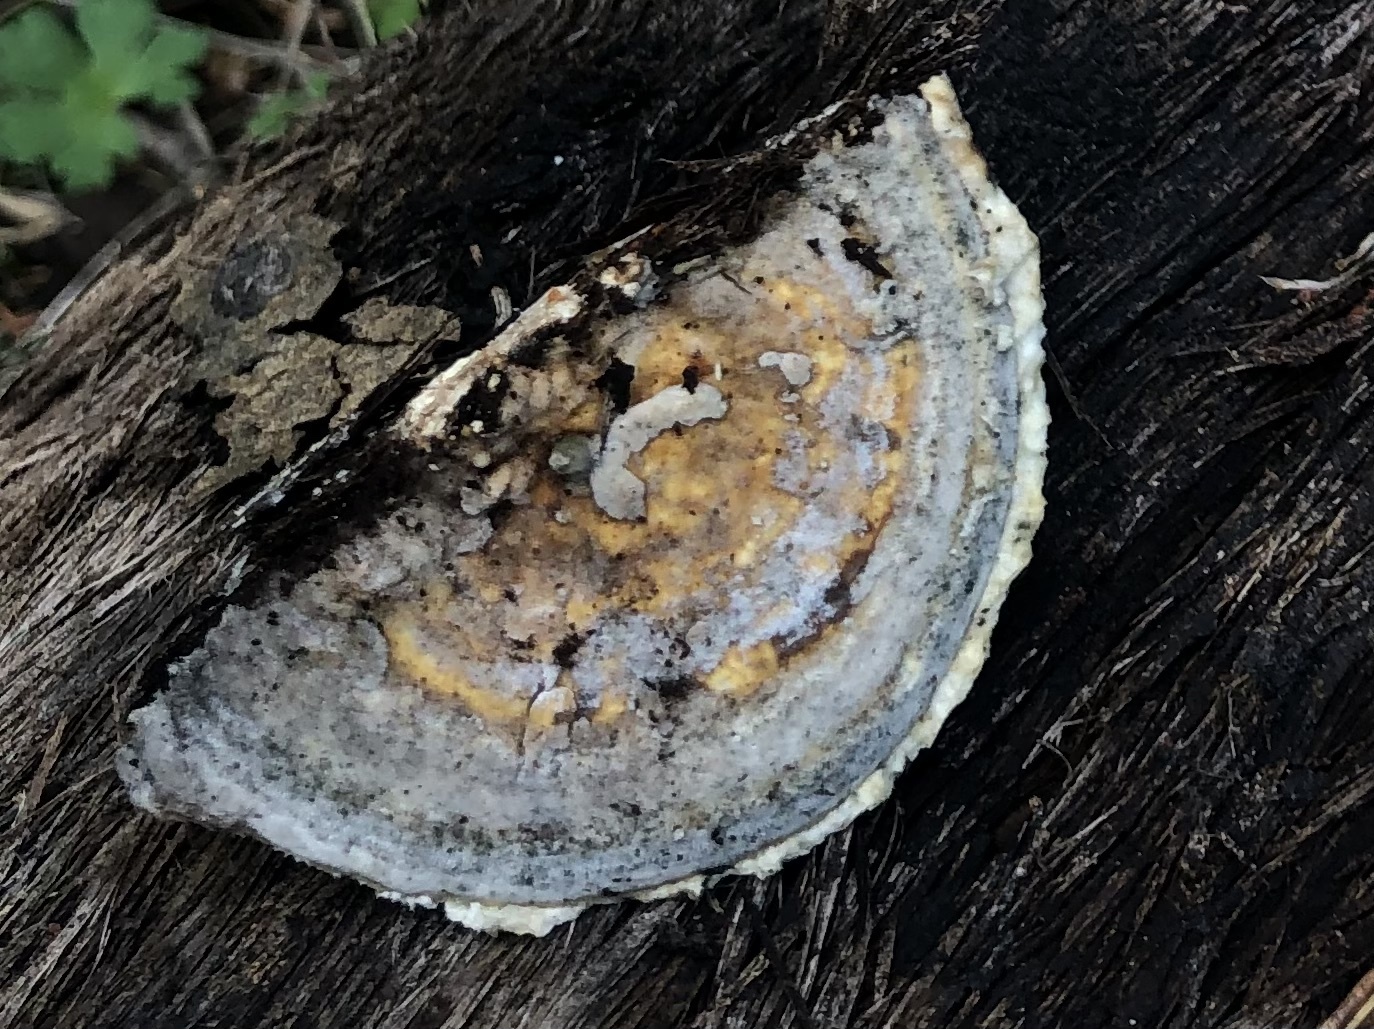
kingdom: Fungi
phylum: Basidiomycota
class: Agaricomycetes
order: Polyporales
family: Polyporaceae
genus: Trametes
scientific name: Trametes versicolor
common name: Turkeytail
